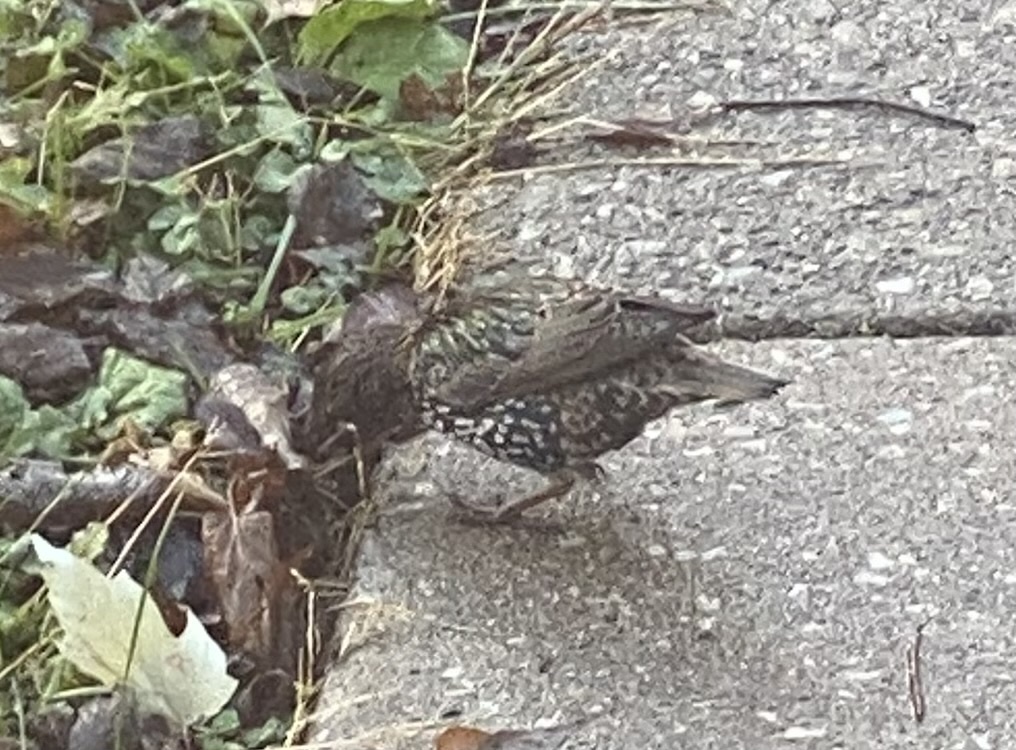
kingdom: Animalia
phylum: Chordata
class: Aves
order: Passeriformes
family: Sturnidae
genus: Sturnus
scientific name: Sturnus vulgaris
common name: Common starling
